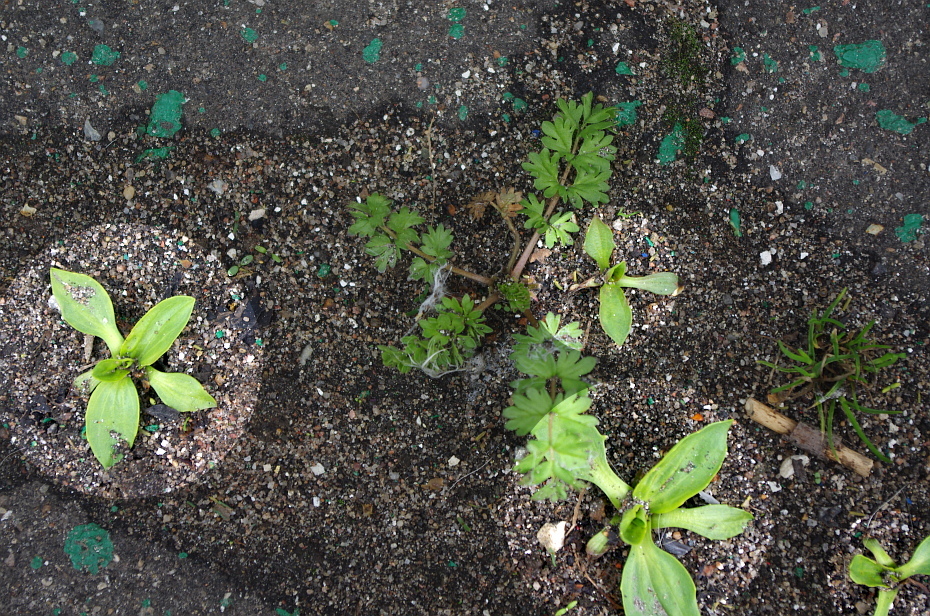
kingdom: Plantae
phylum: Tracheophyta
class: Magnoliopsida
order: Lamiales
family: Plantaginaceae
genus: Plantago
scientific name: Plantago major
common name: Common plantain
